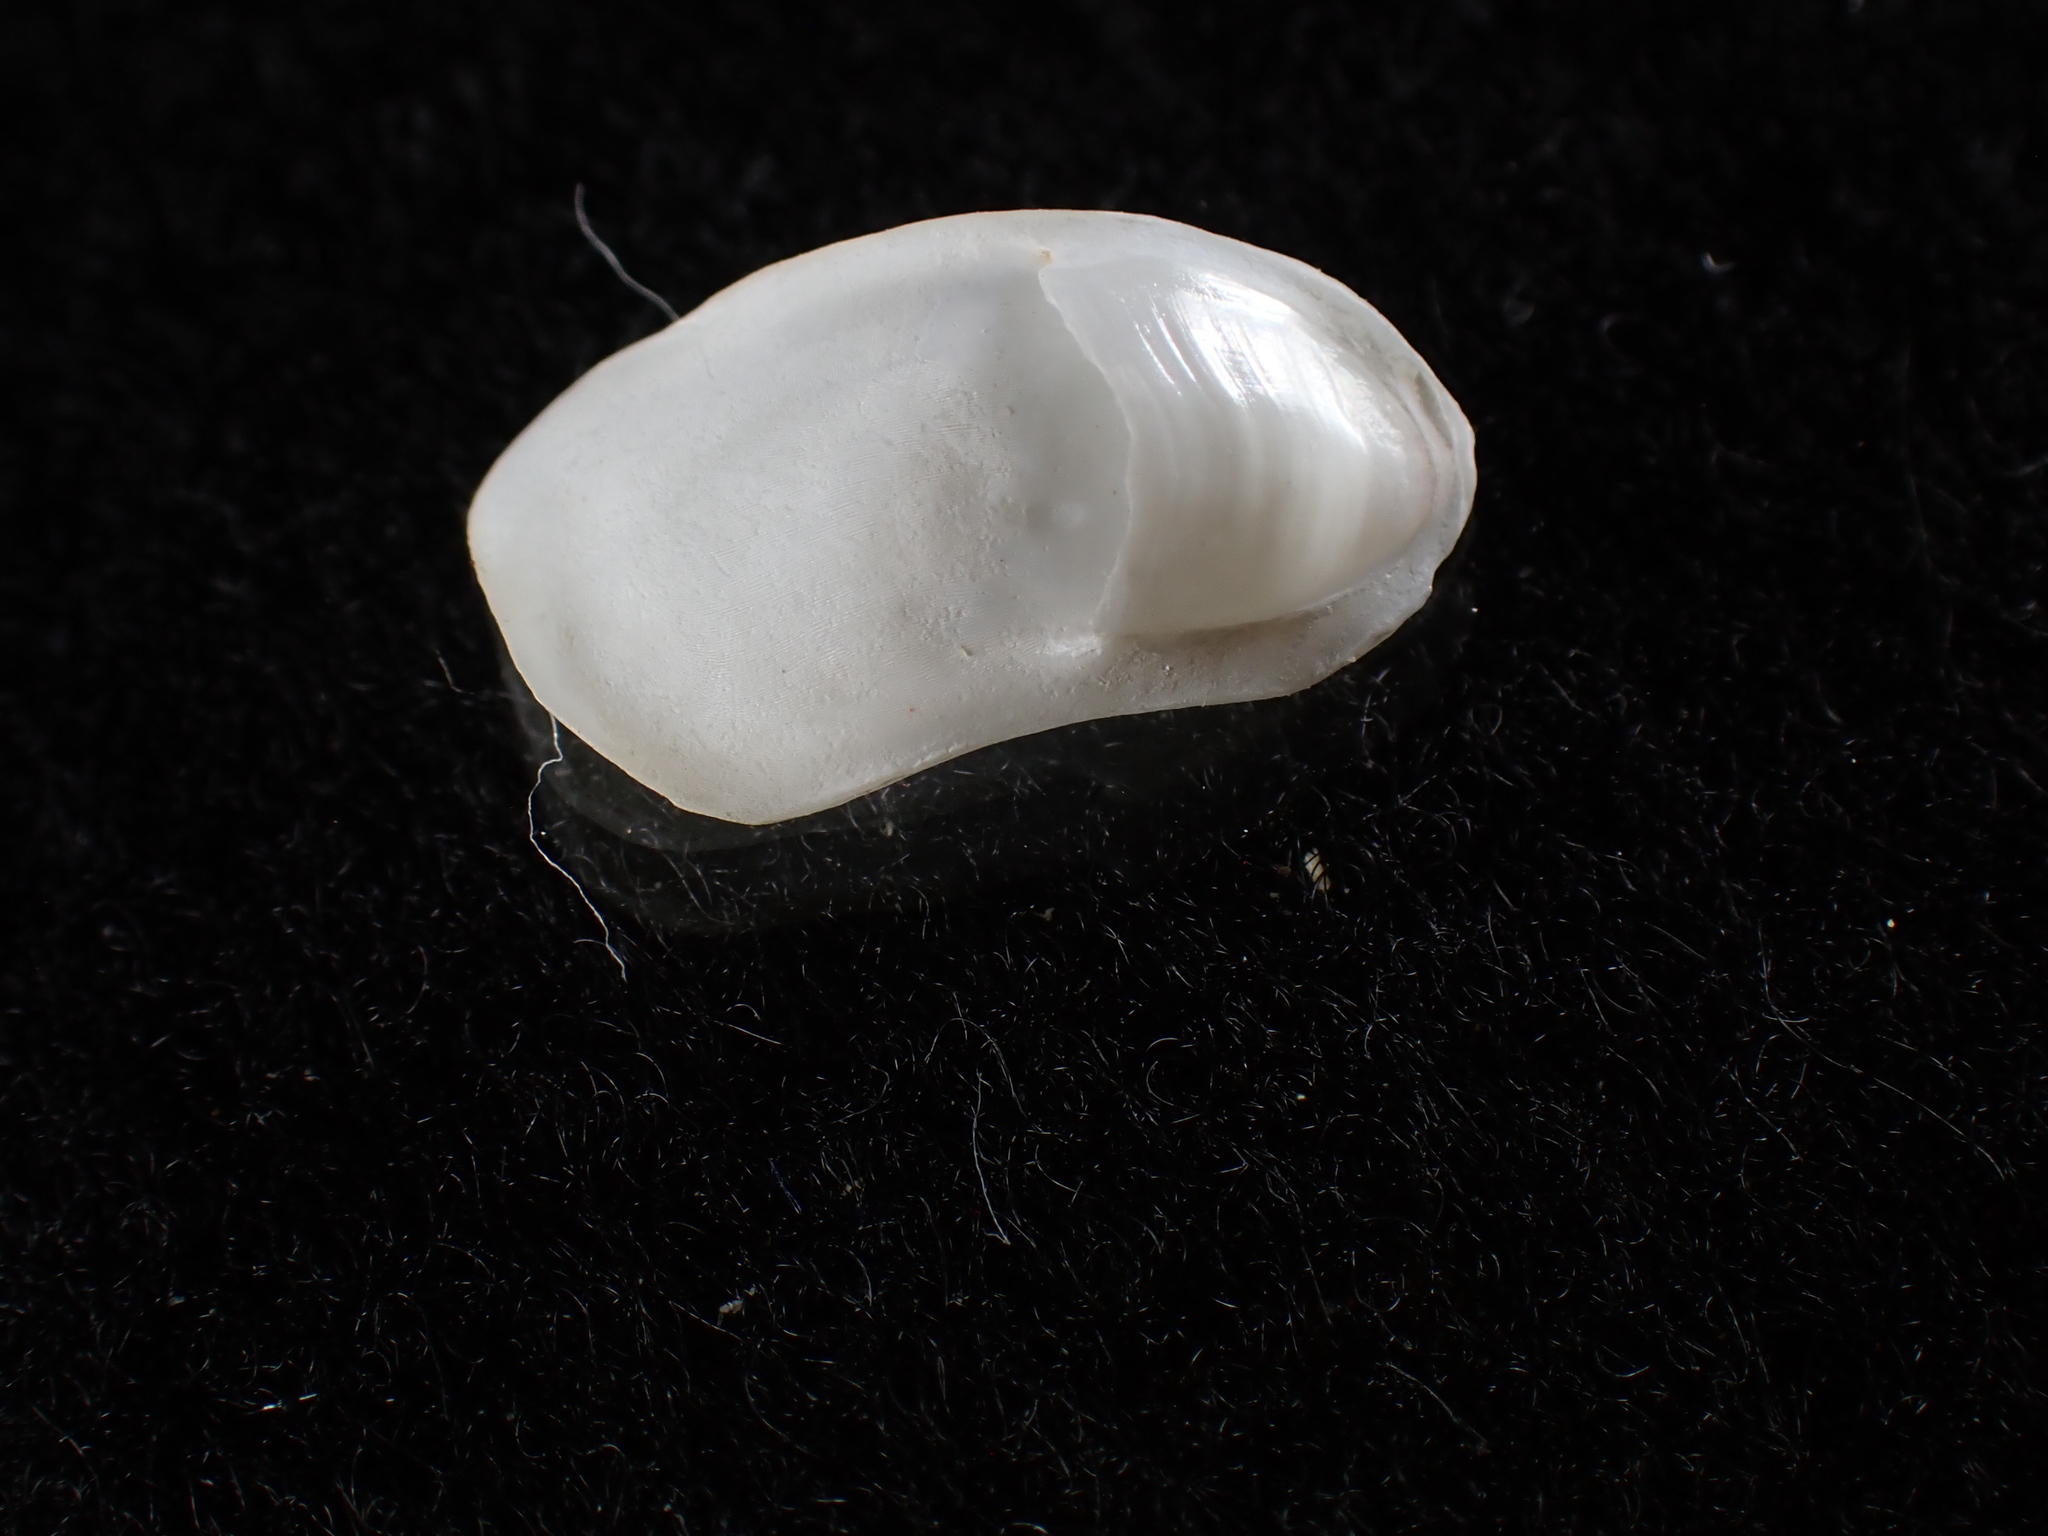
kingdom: Animalia
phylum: Mollusca
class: Gastropoda
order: Littorinimorpha
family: Calyptraeidae
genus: Crepidula
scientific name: Crepidula plana
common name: Eastern white slippersnail
